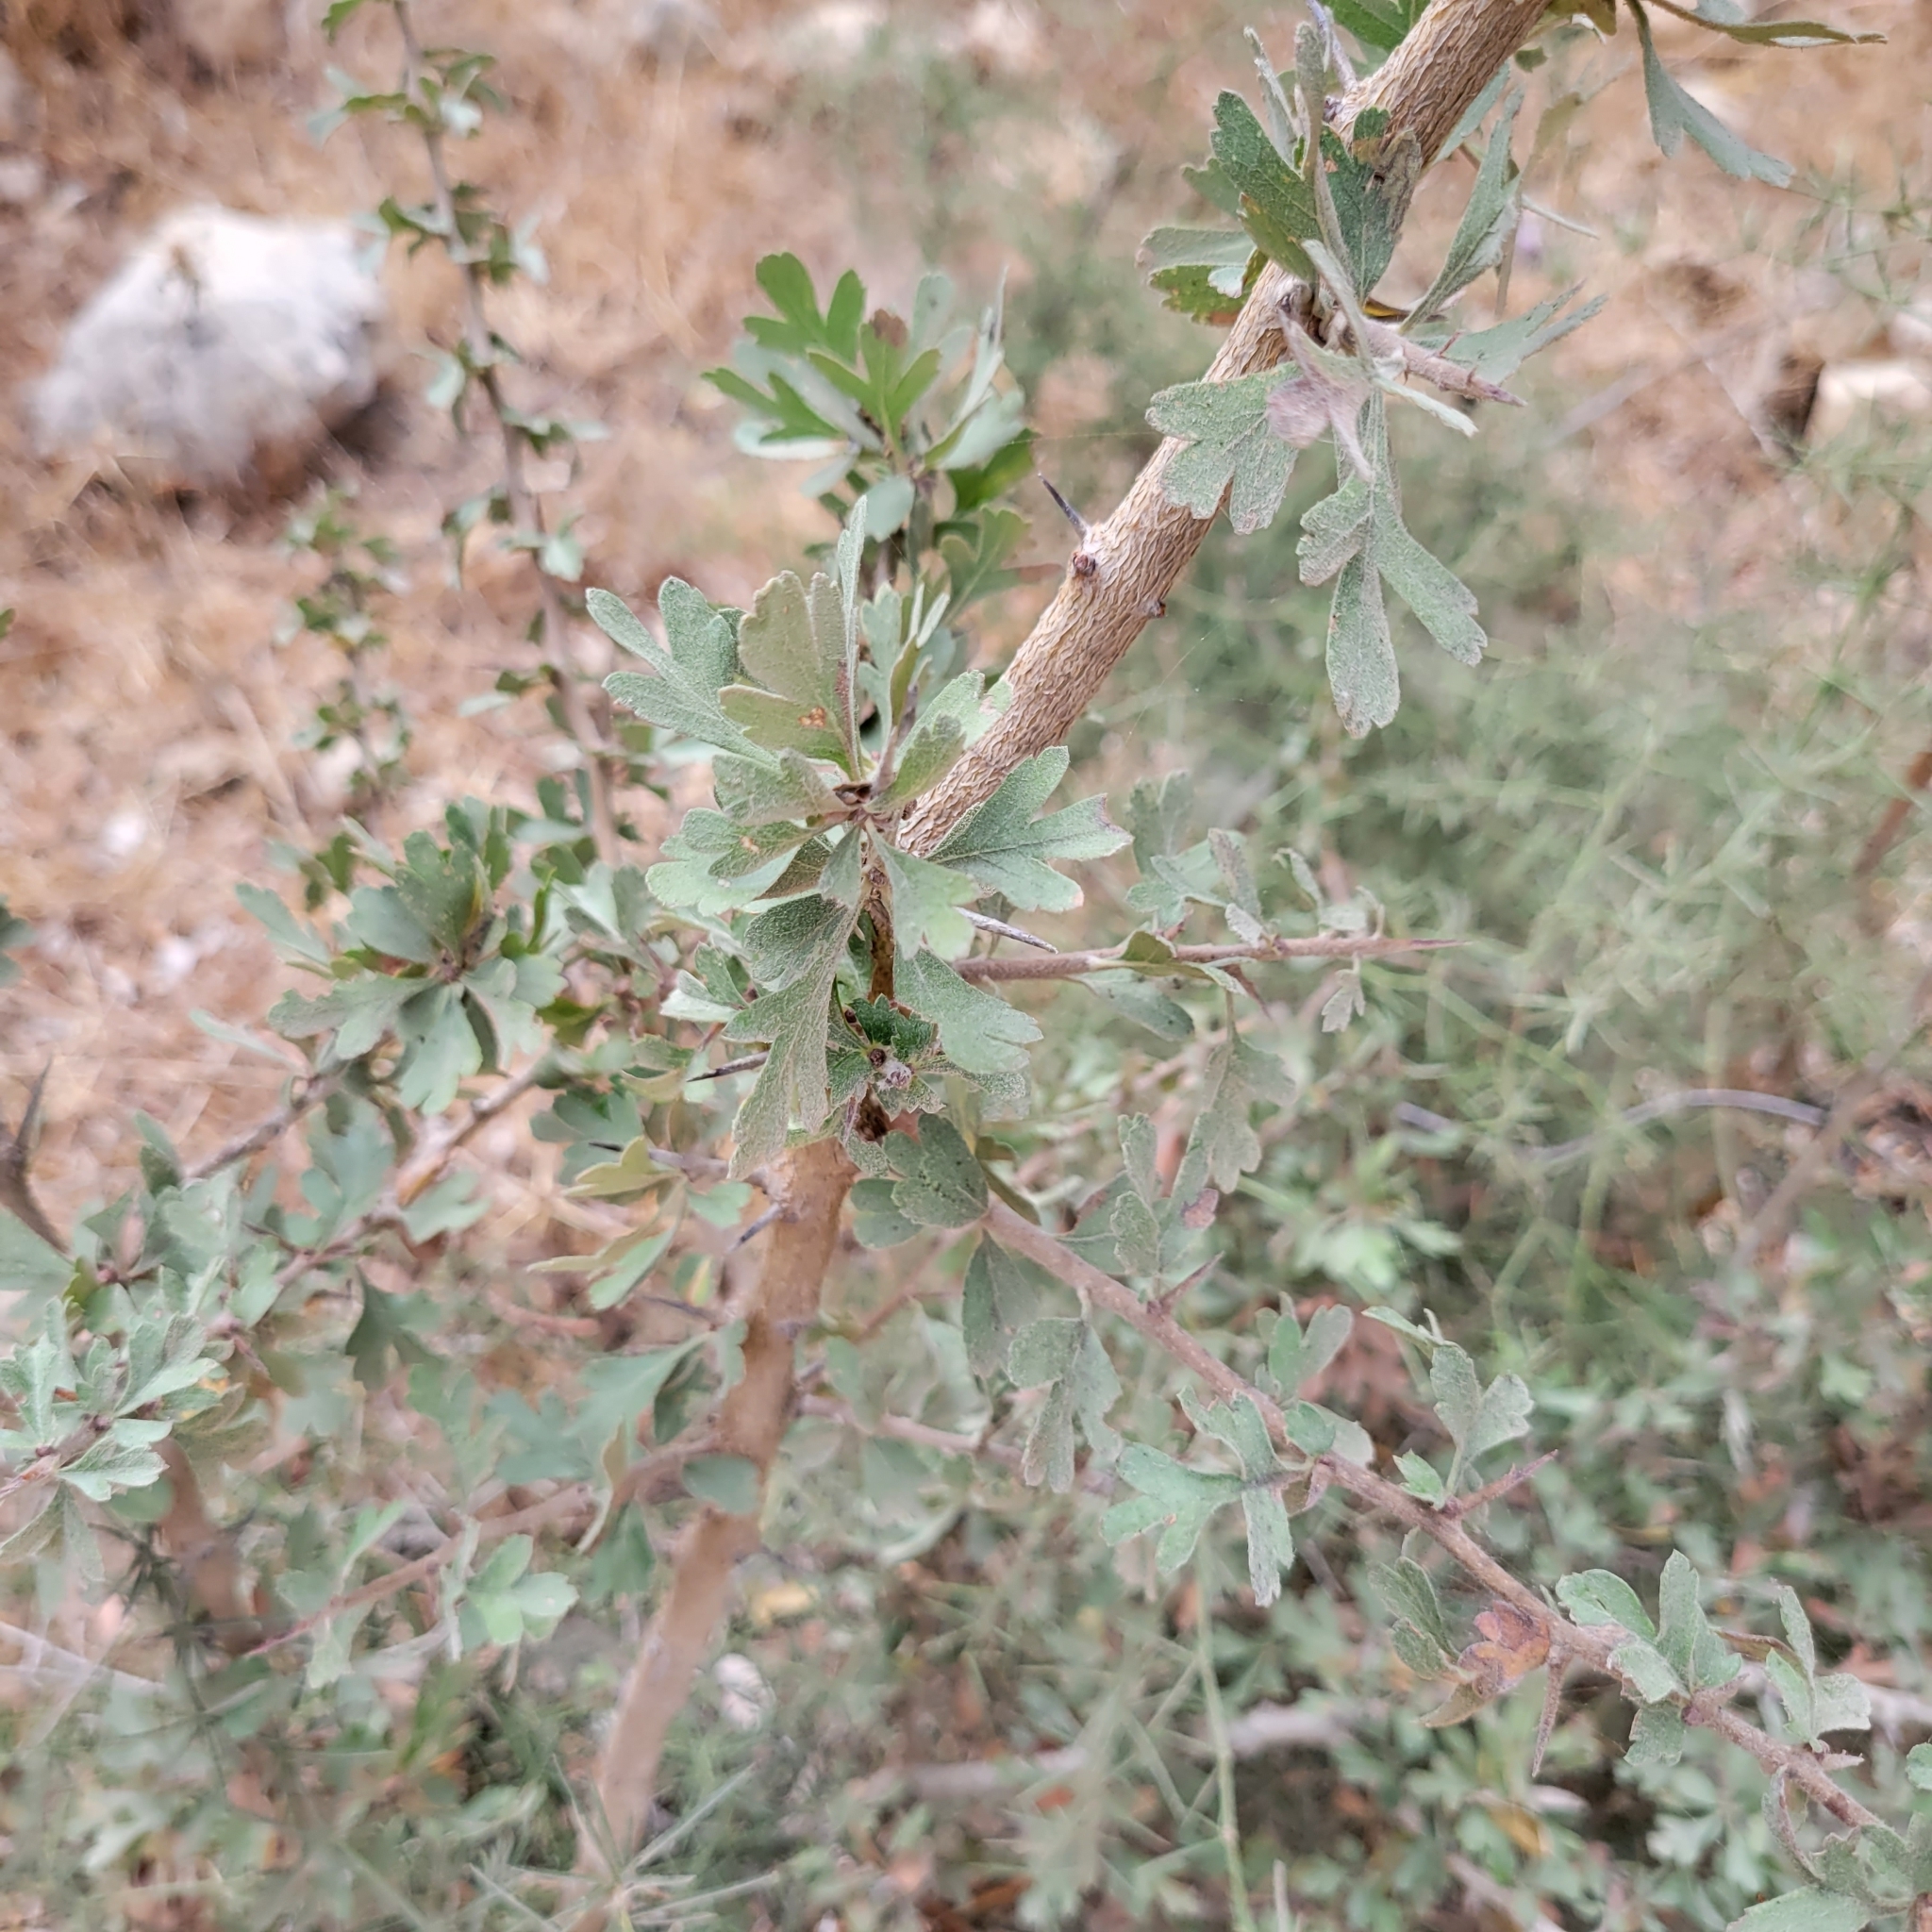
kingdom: Plantae
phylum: Tracheophyta
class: Magnoliopsida
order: Rosales
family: Rosaceae
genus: Crataegus
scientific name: Crataegus orientalis
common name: Oriental hawthorn
